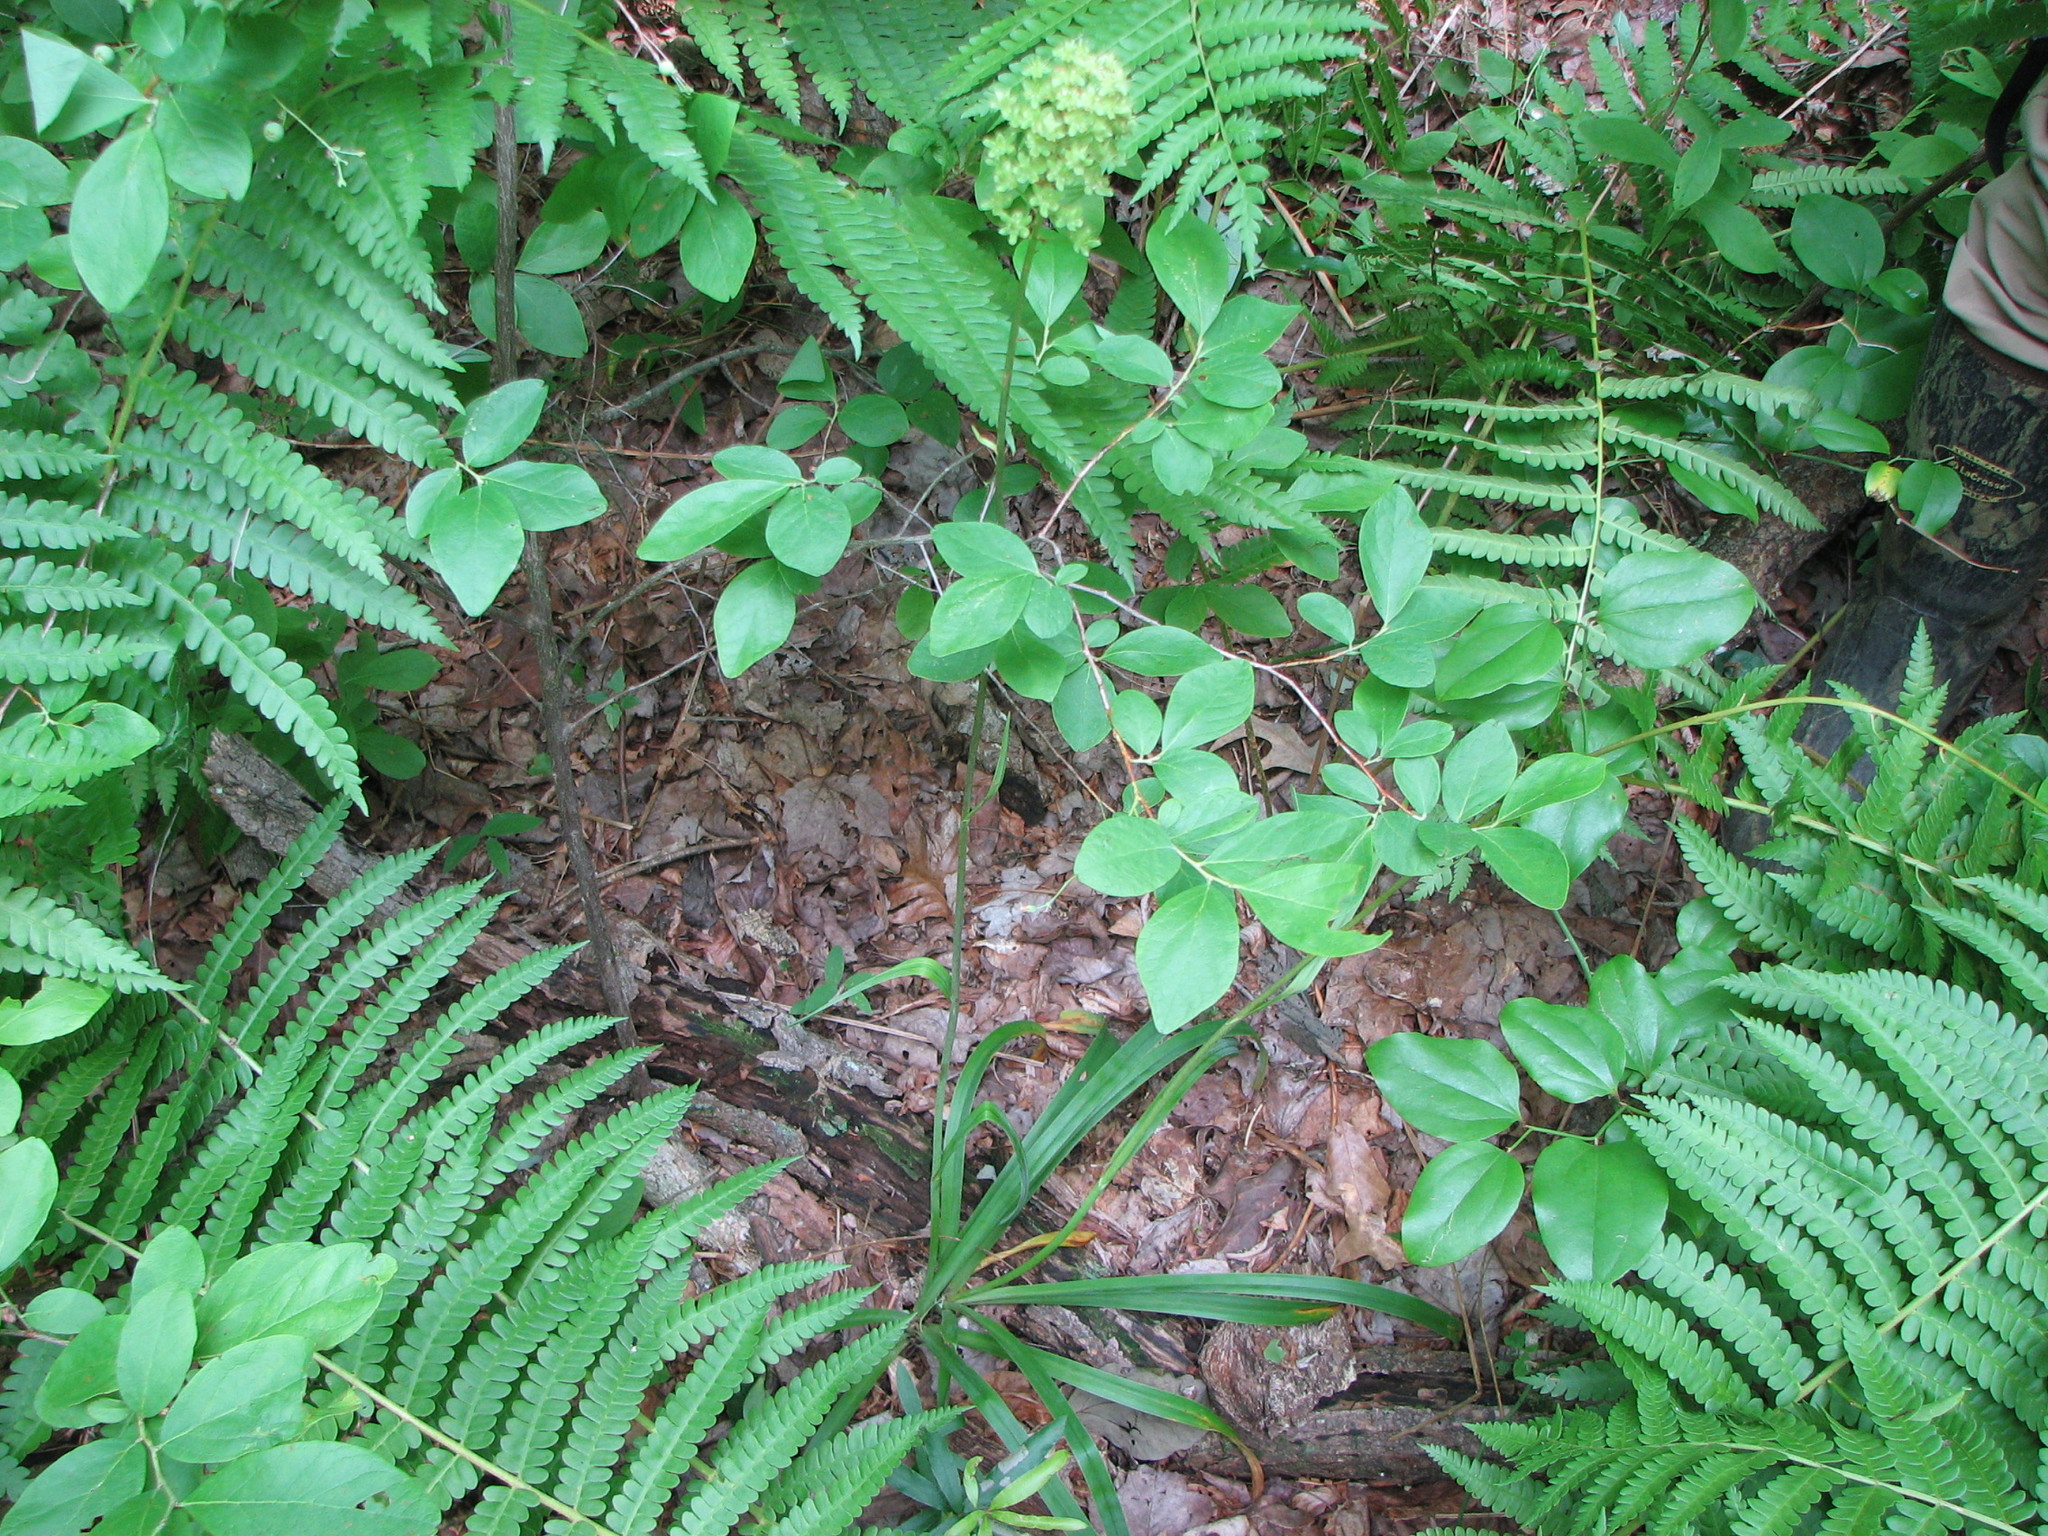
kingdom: Plantae
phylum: Tracheophyta
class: Liliopsida
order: Liliales
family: Melanthiaceae
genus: Amianthium
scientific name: Amianthium muscitoxicum
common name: Fly-poison
